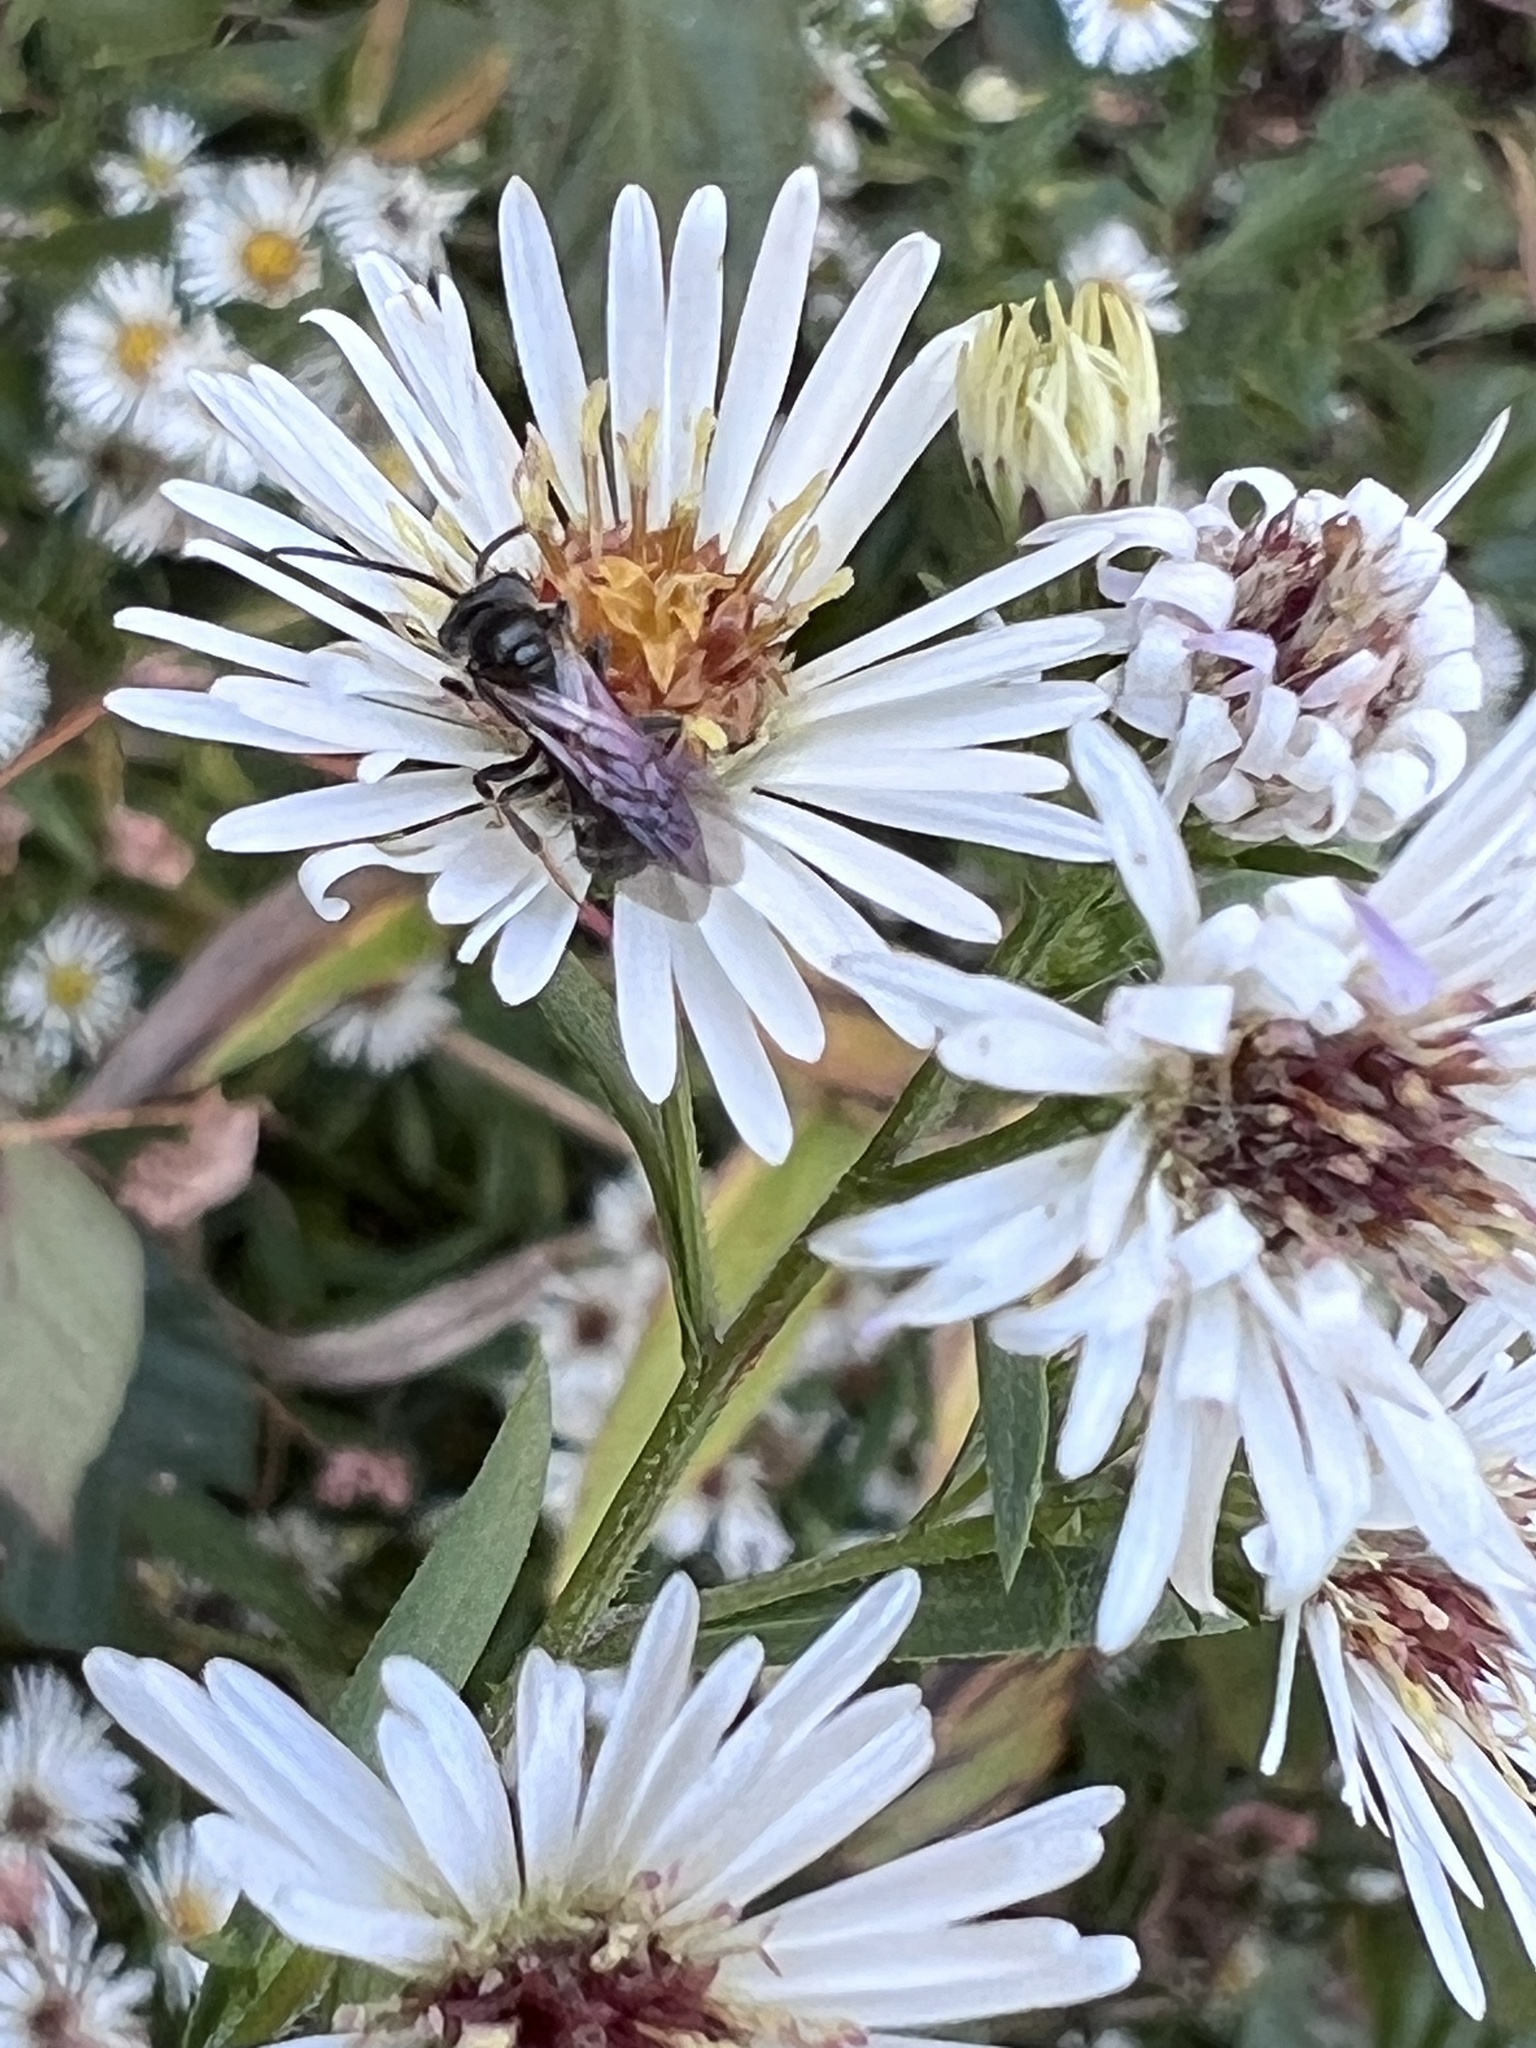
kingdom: Animalia
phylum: Arthropoda
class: Insecta
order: Hymenoptera
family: Halictidae
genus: Lasioglossum
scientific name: Lasioglossum fuscipenne
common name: Brown-winged sweat bee
